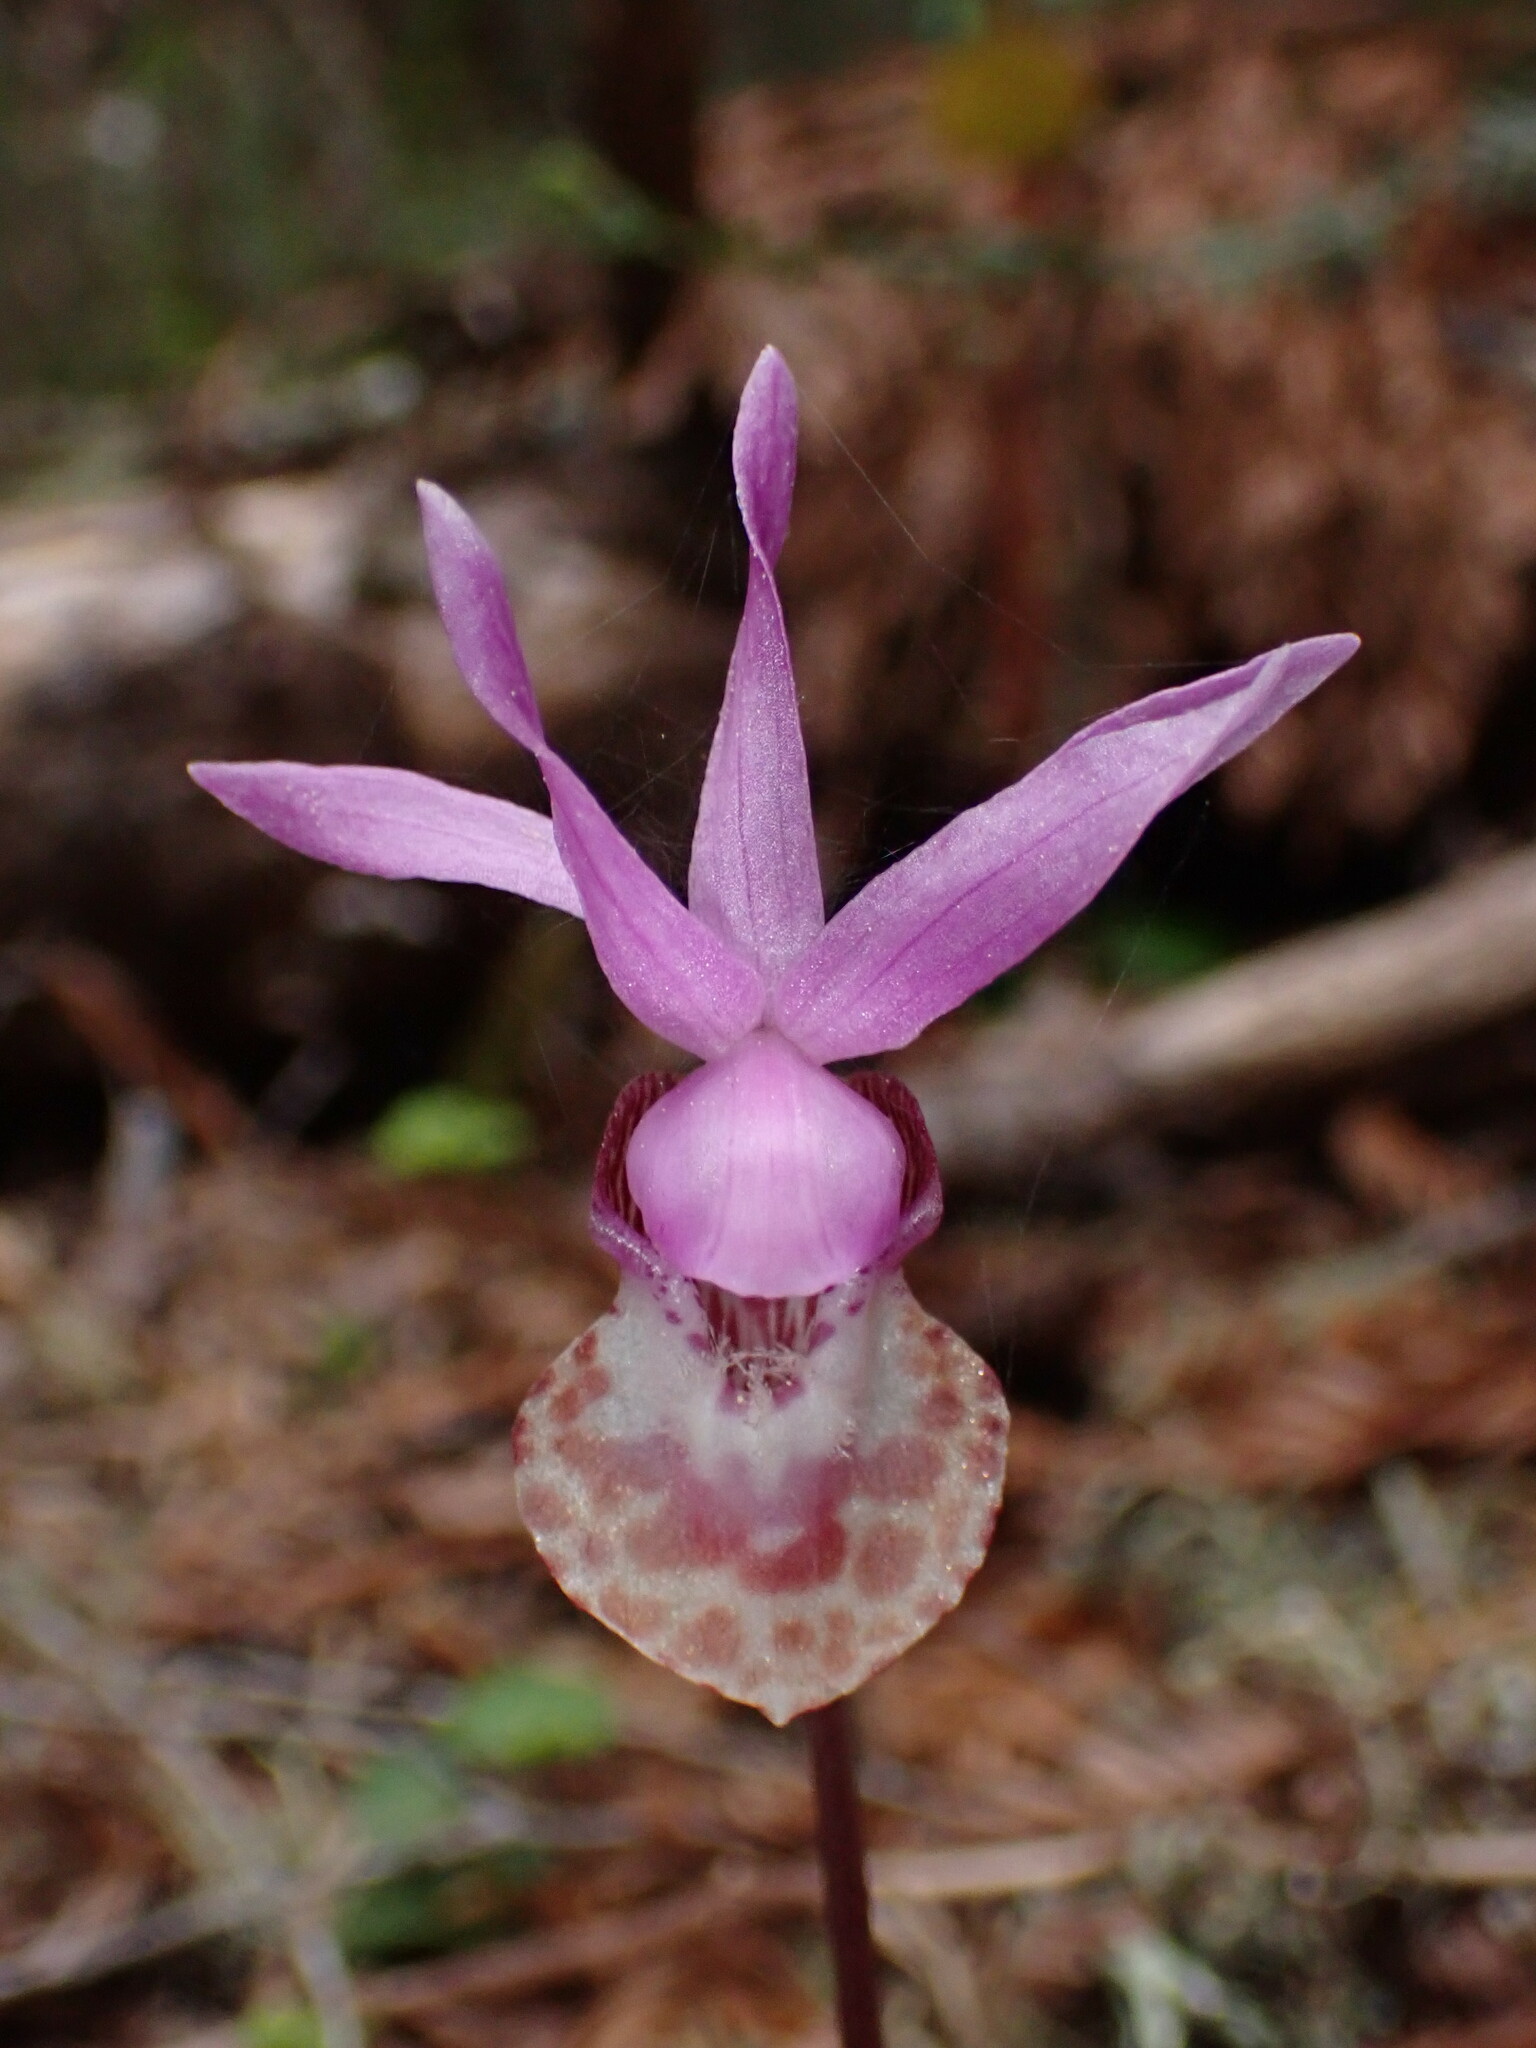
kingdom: Plantae
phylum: Tracheophyta
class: Liliopsida
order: Asparagales
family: Orchidaceae
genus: Calypso
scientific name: Calypso bulbosa
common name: Calypso
